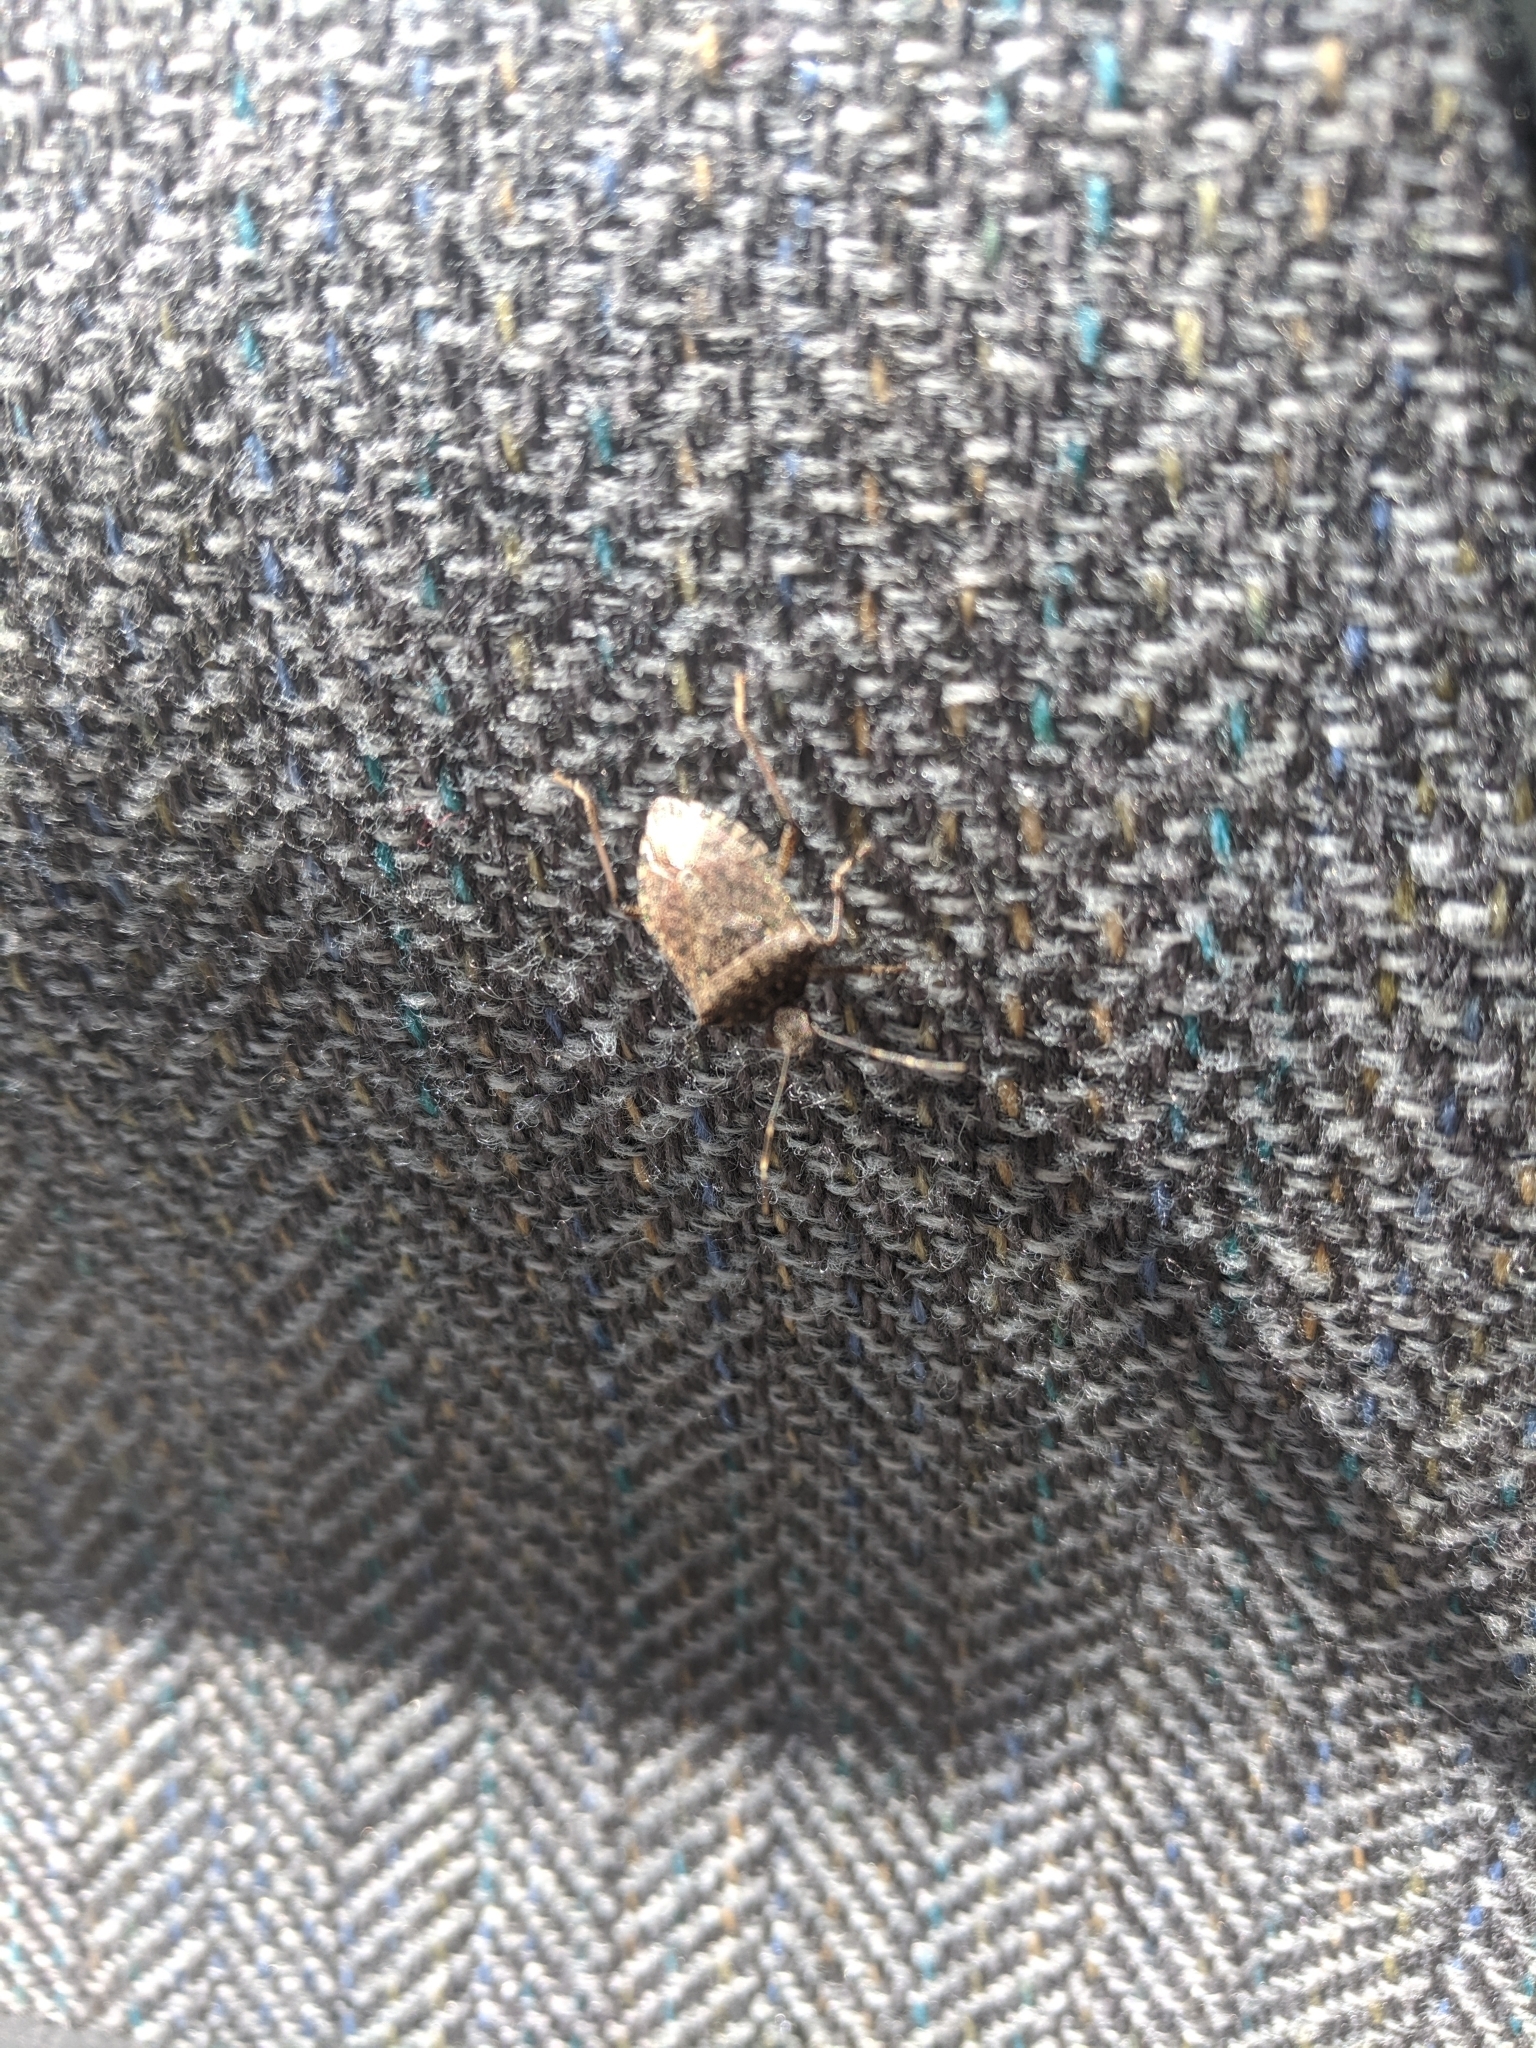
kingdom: Animalia
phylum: Arthropoda
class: Insecta
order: Hemiptera
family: Pentatomidae
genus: Halyomorpha
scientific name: Halyomorpha halys
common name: Brown marmorated stink bug
